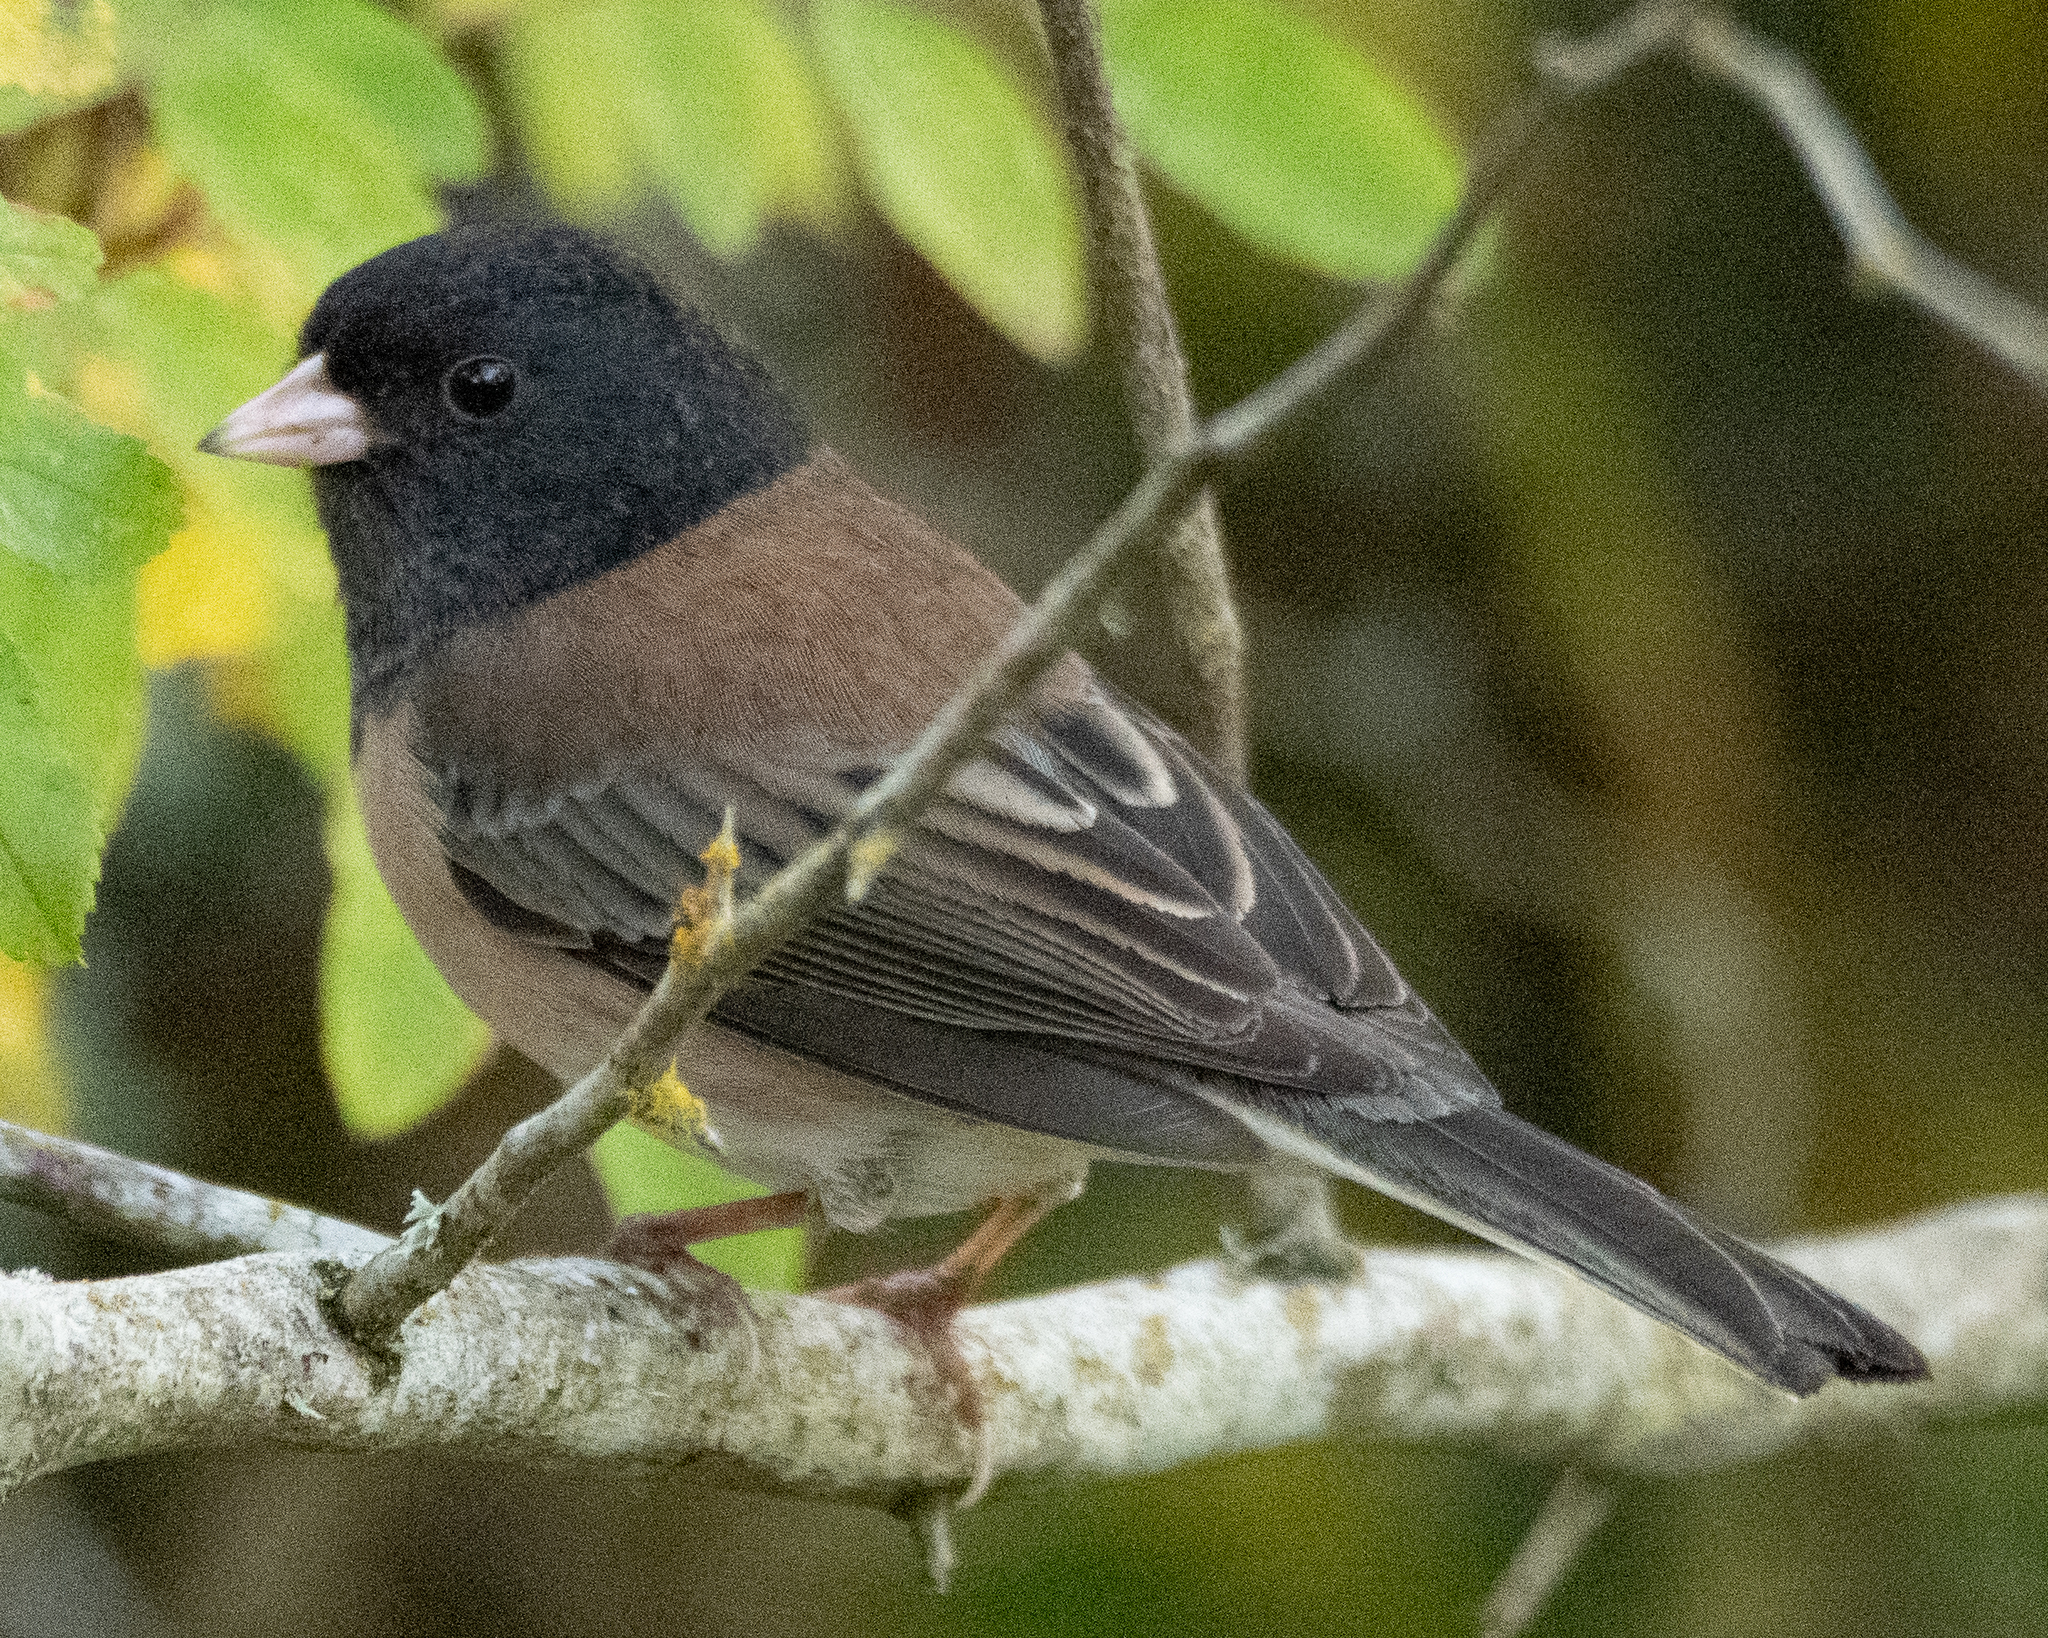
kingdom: Animalia
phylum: Chordata
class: Aves
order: Passeriformes
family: Passerellidae
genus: Junco
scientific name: Junco hyemalis
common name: Dark-eyed junco
